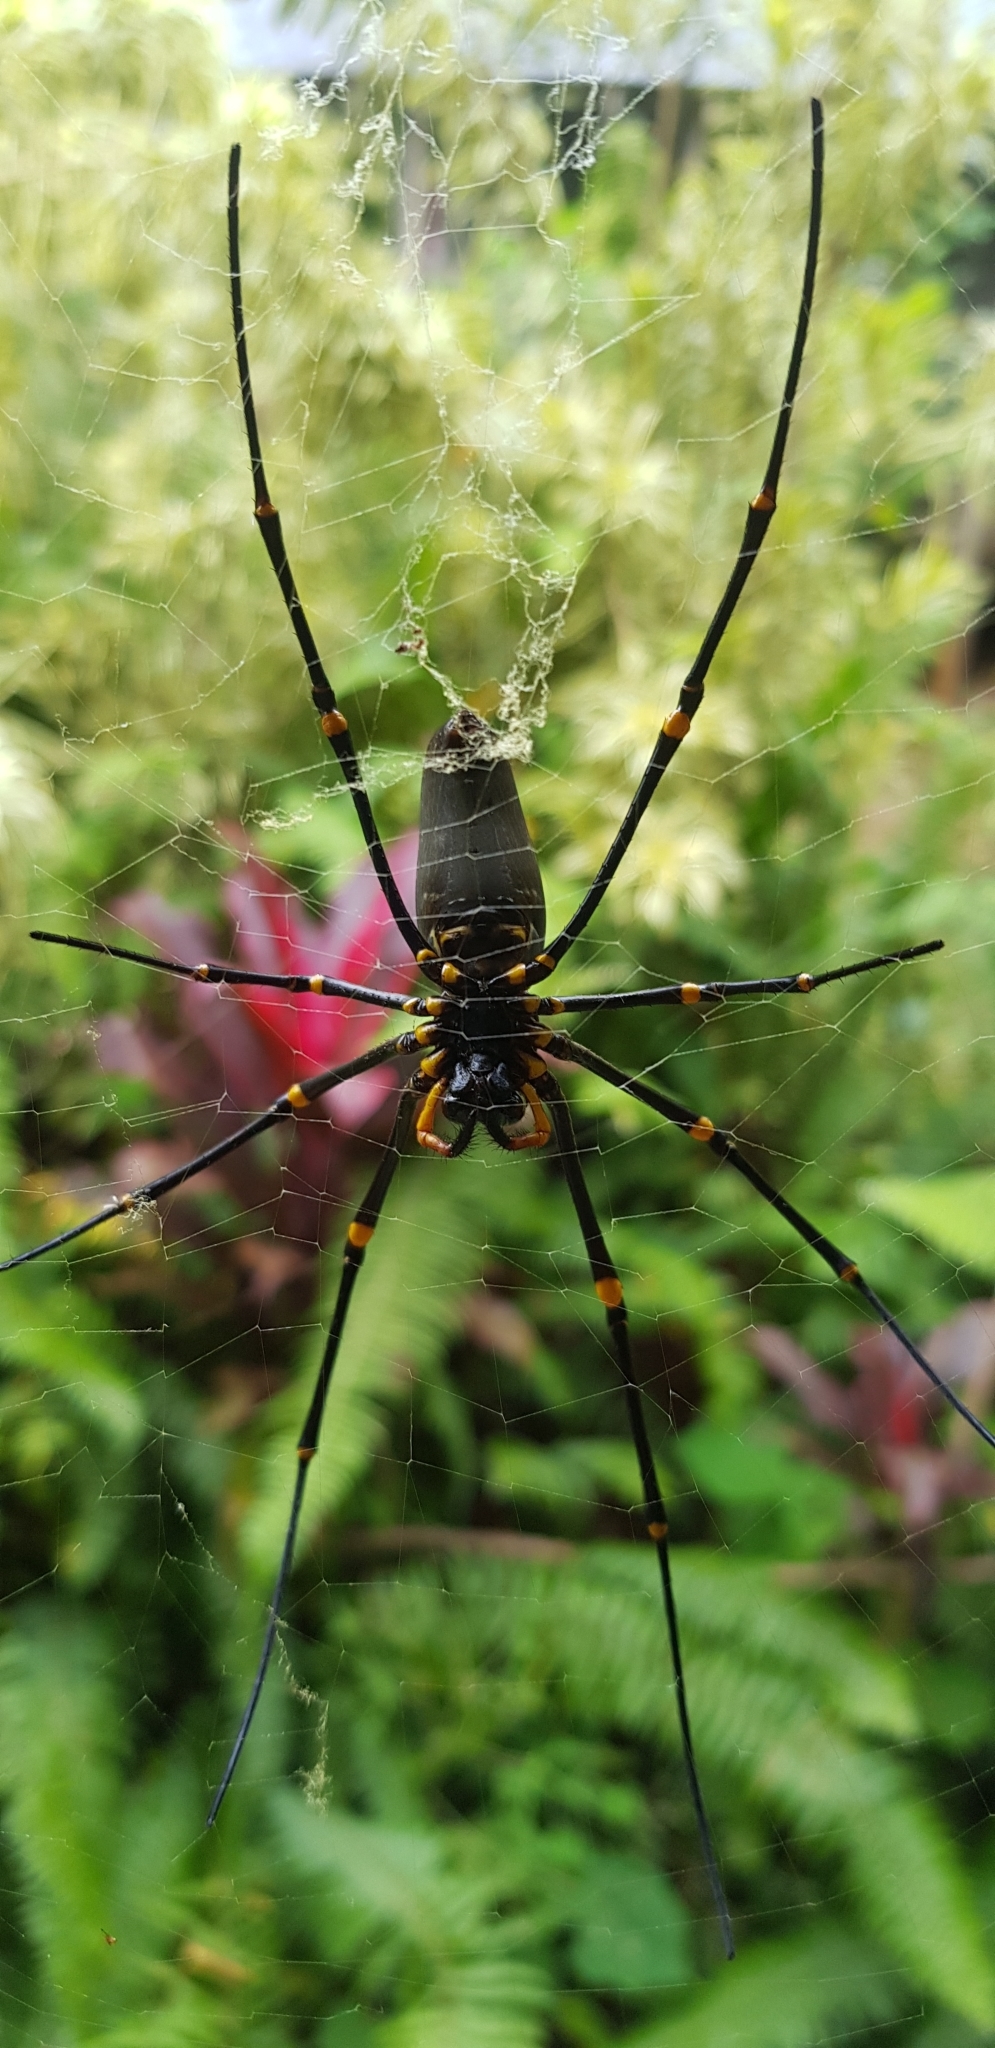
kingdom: Animalia
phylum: Arthropoda
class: Arachnida
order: Araneae
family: Araneidae
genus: Nephila
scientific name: Nephila pilipes
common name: Giant golden orb weaver
